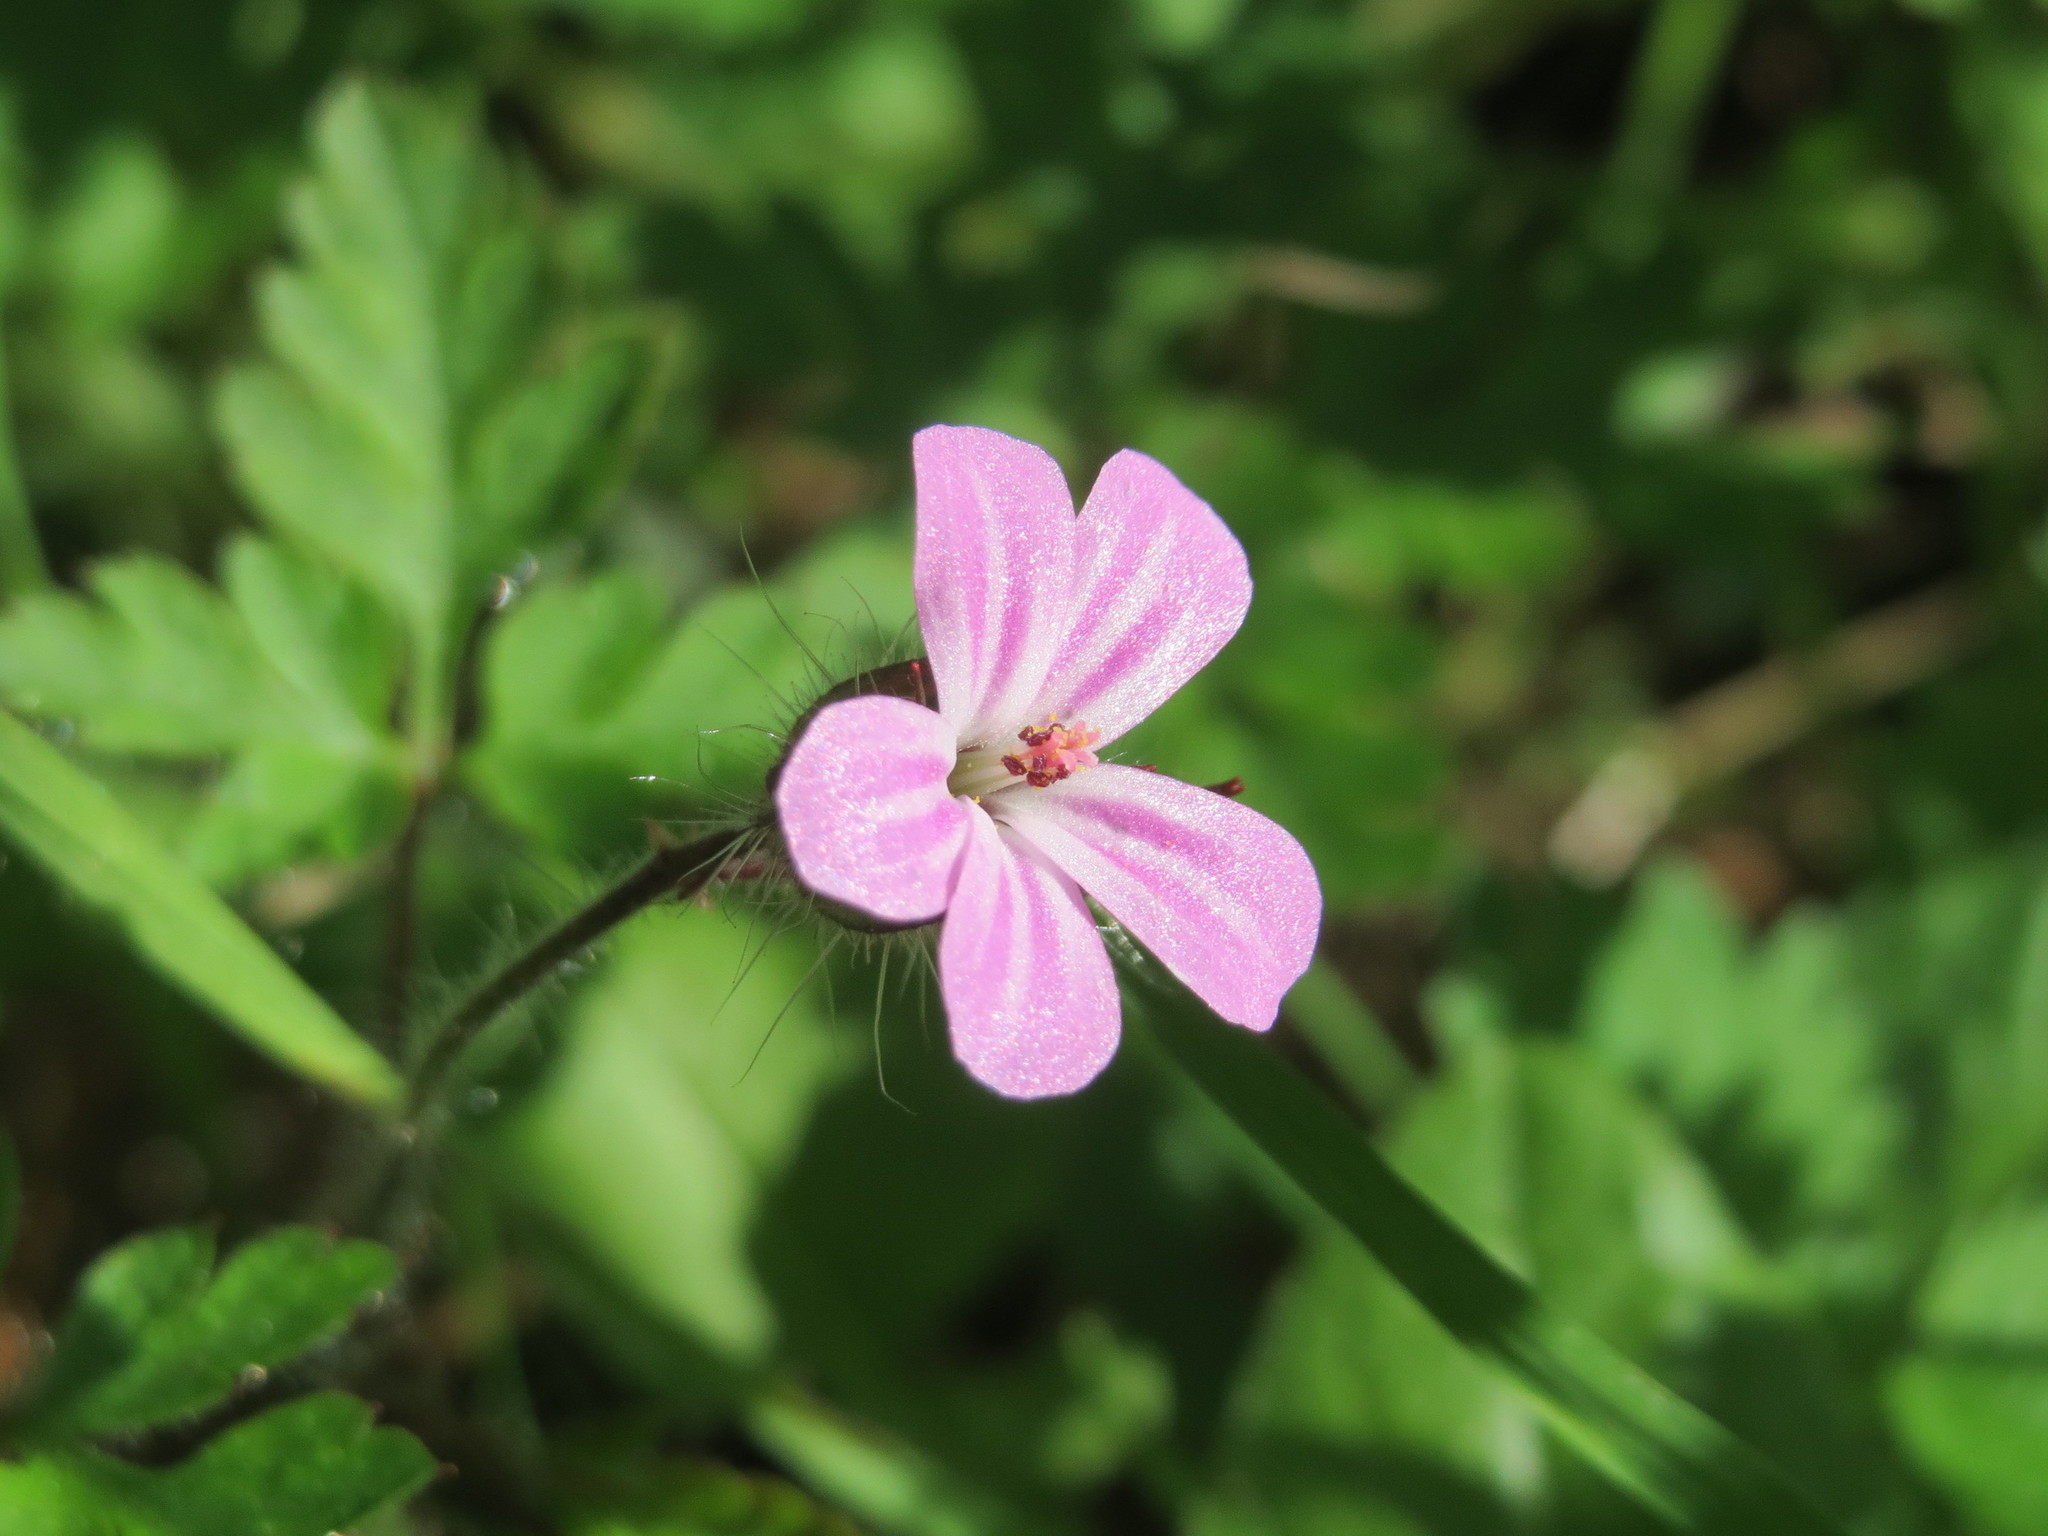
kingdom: Plantae
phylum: Tracheophyta
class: Magnoliopsida
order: Geraniales
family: Geraniaceae
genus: Geranium
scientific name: Geranium robertianum
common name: Herb-robert
